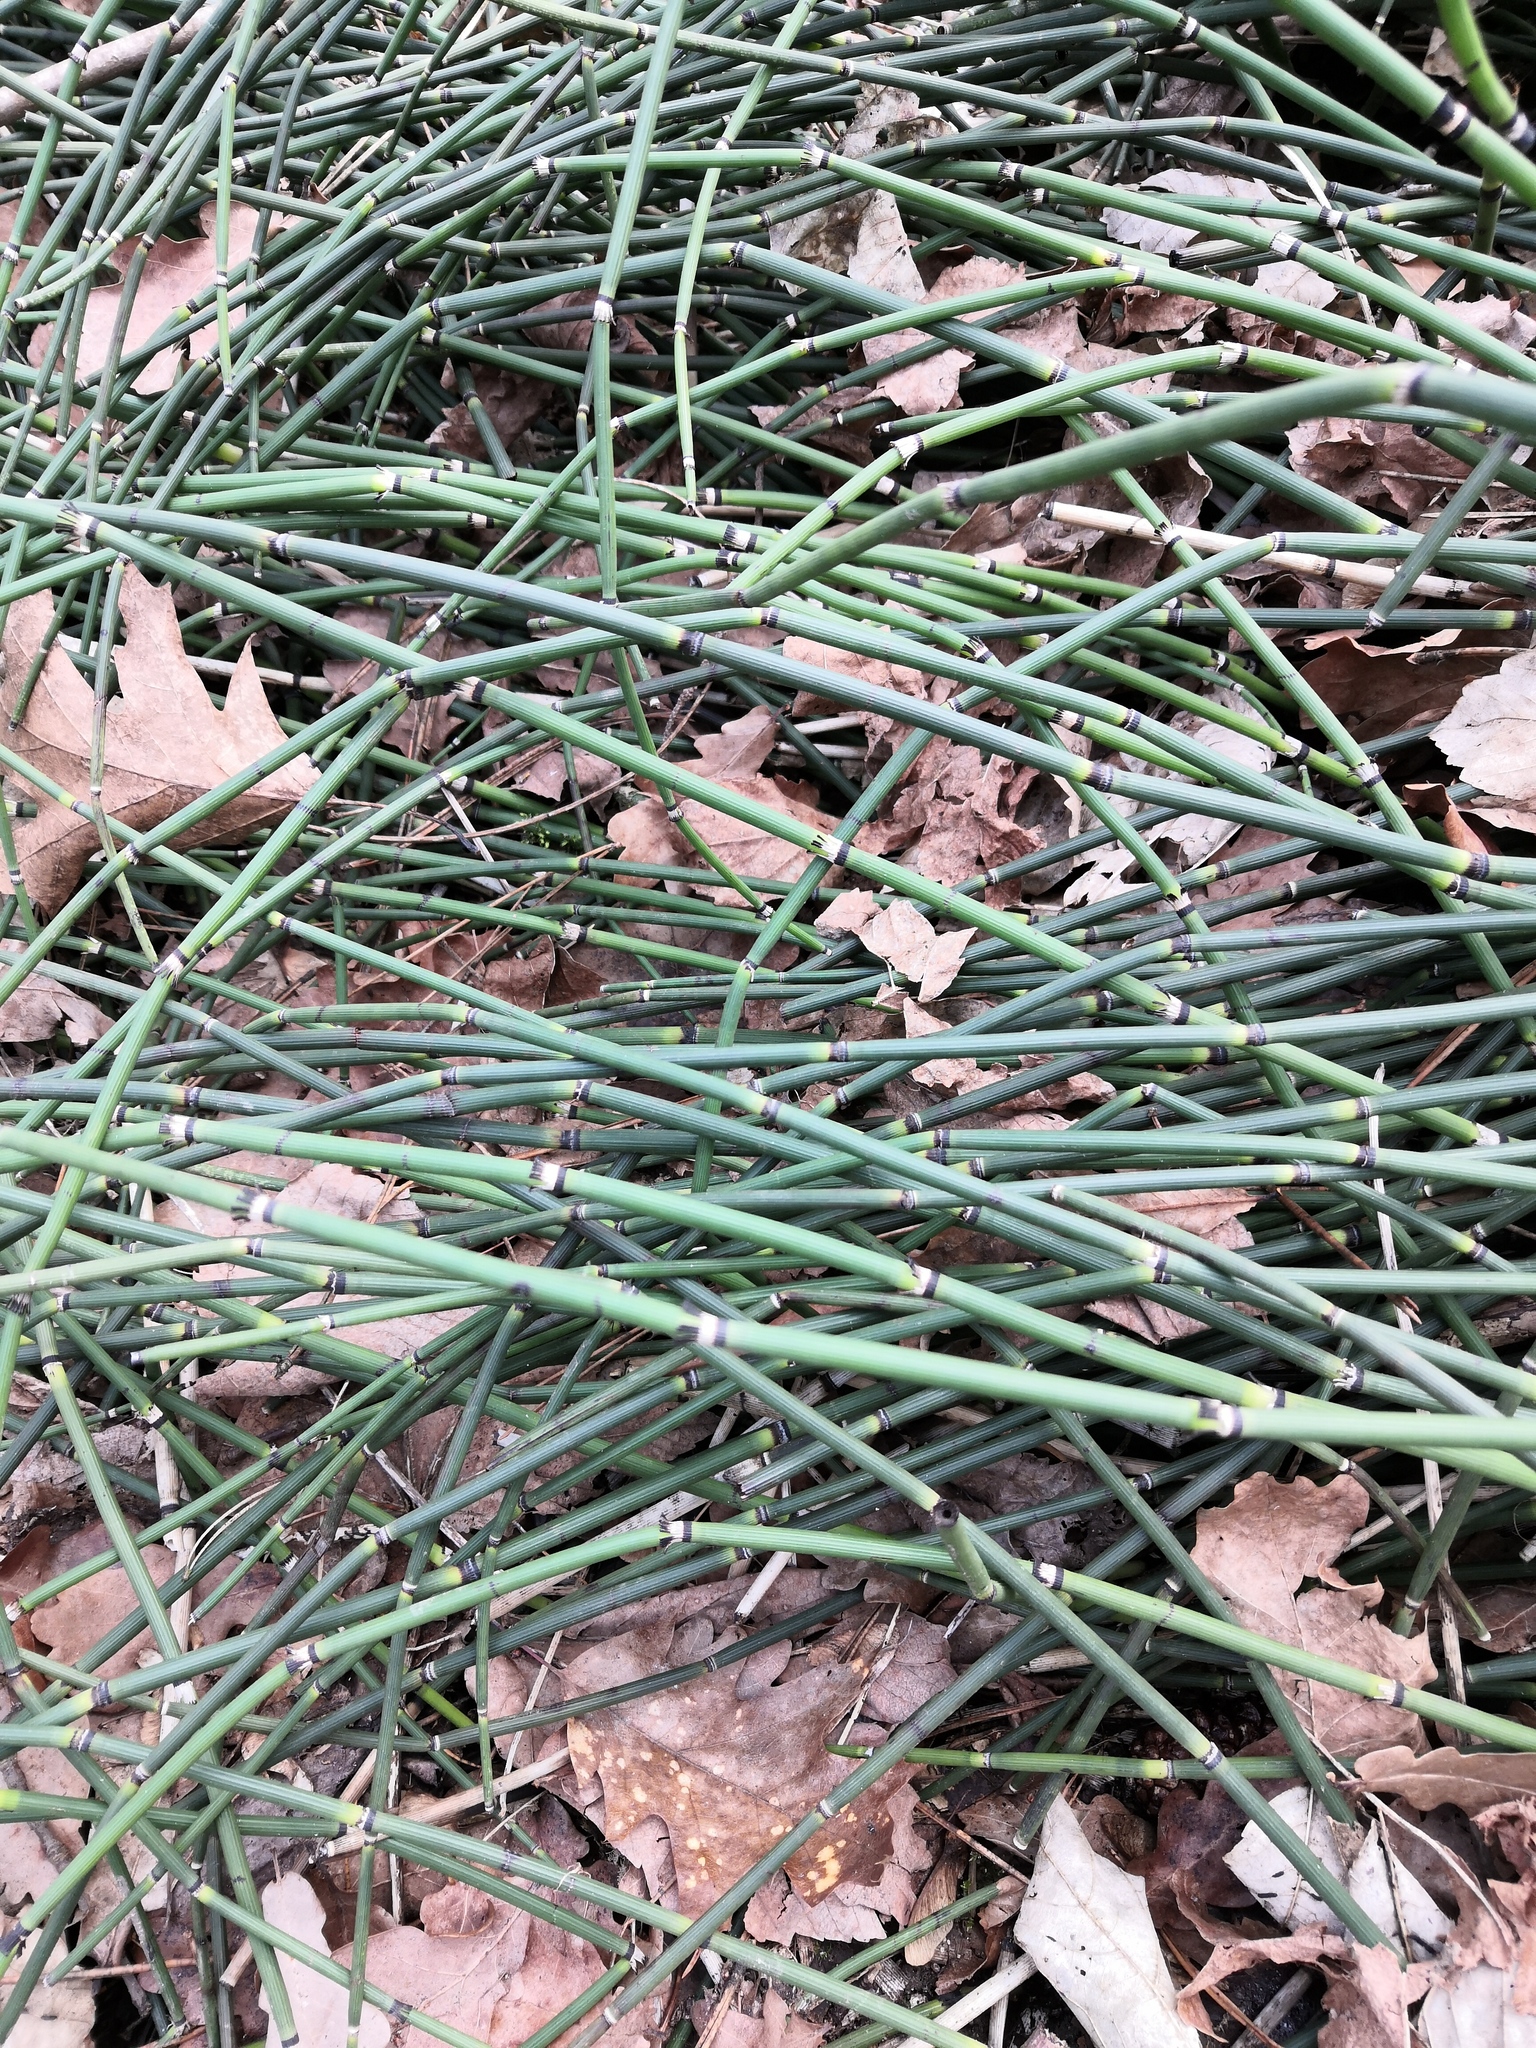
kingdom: Plantae
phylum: Tracheophyta
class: Polypodiopsida
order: Equisetales
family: Equisetaceae
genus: Equisetum
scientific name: Equisetum hyemale
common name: Rough horsetail
